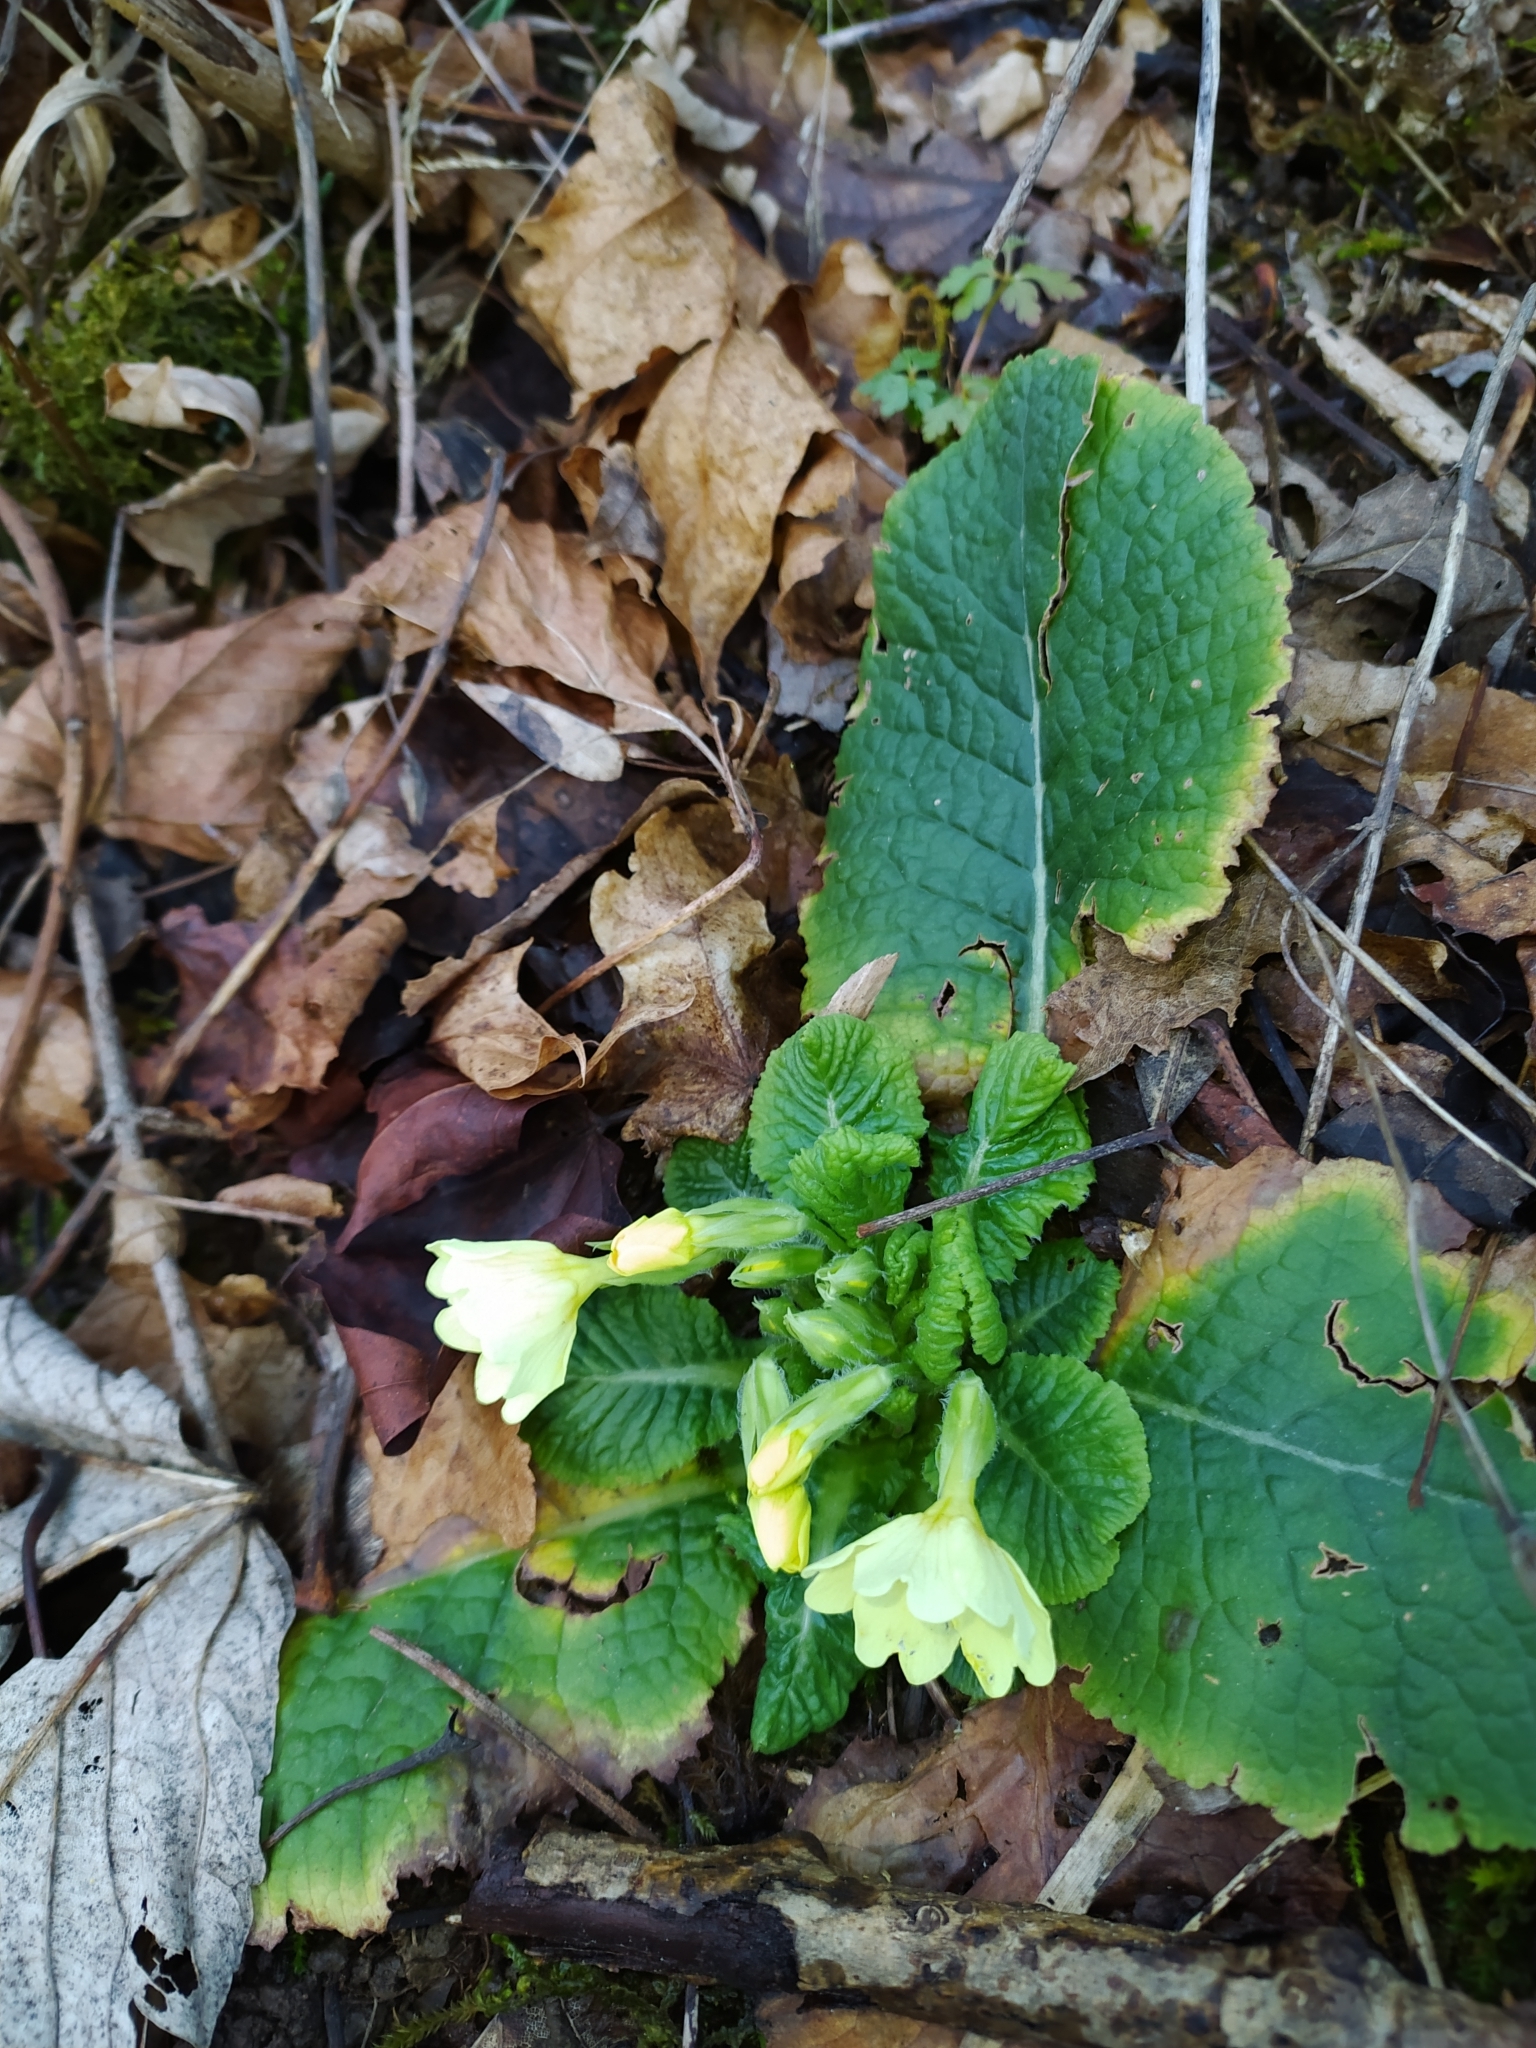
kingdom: Plantae
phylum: Tracheophyta
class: Magnoliopsida
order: Ericales
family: Primulaceae
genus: Primula
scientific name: Primula vulgaris
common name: Primrose
